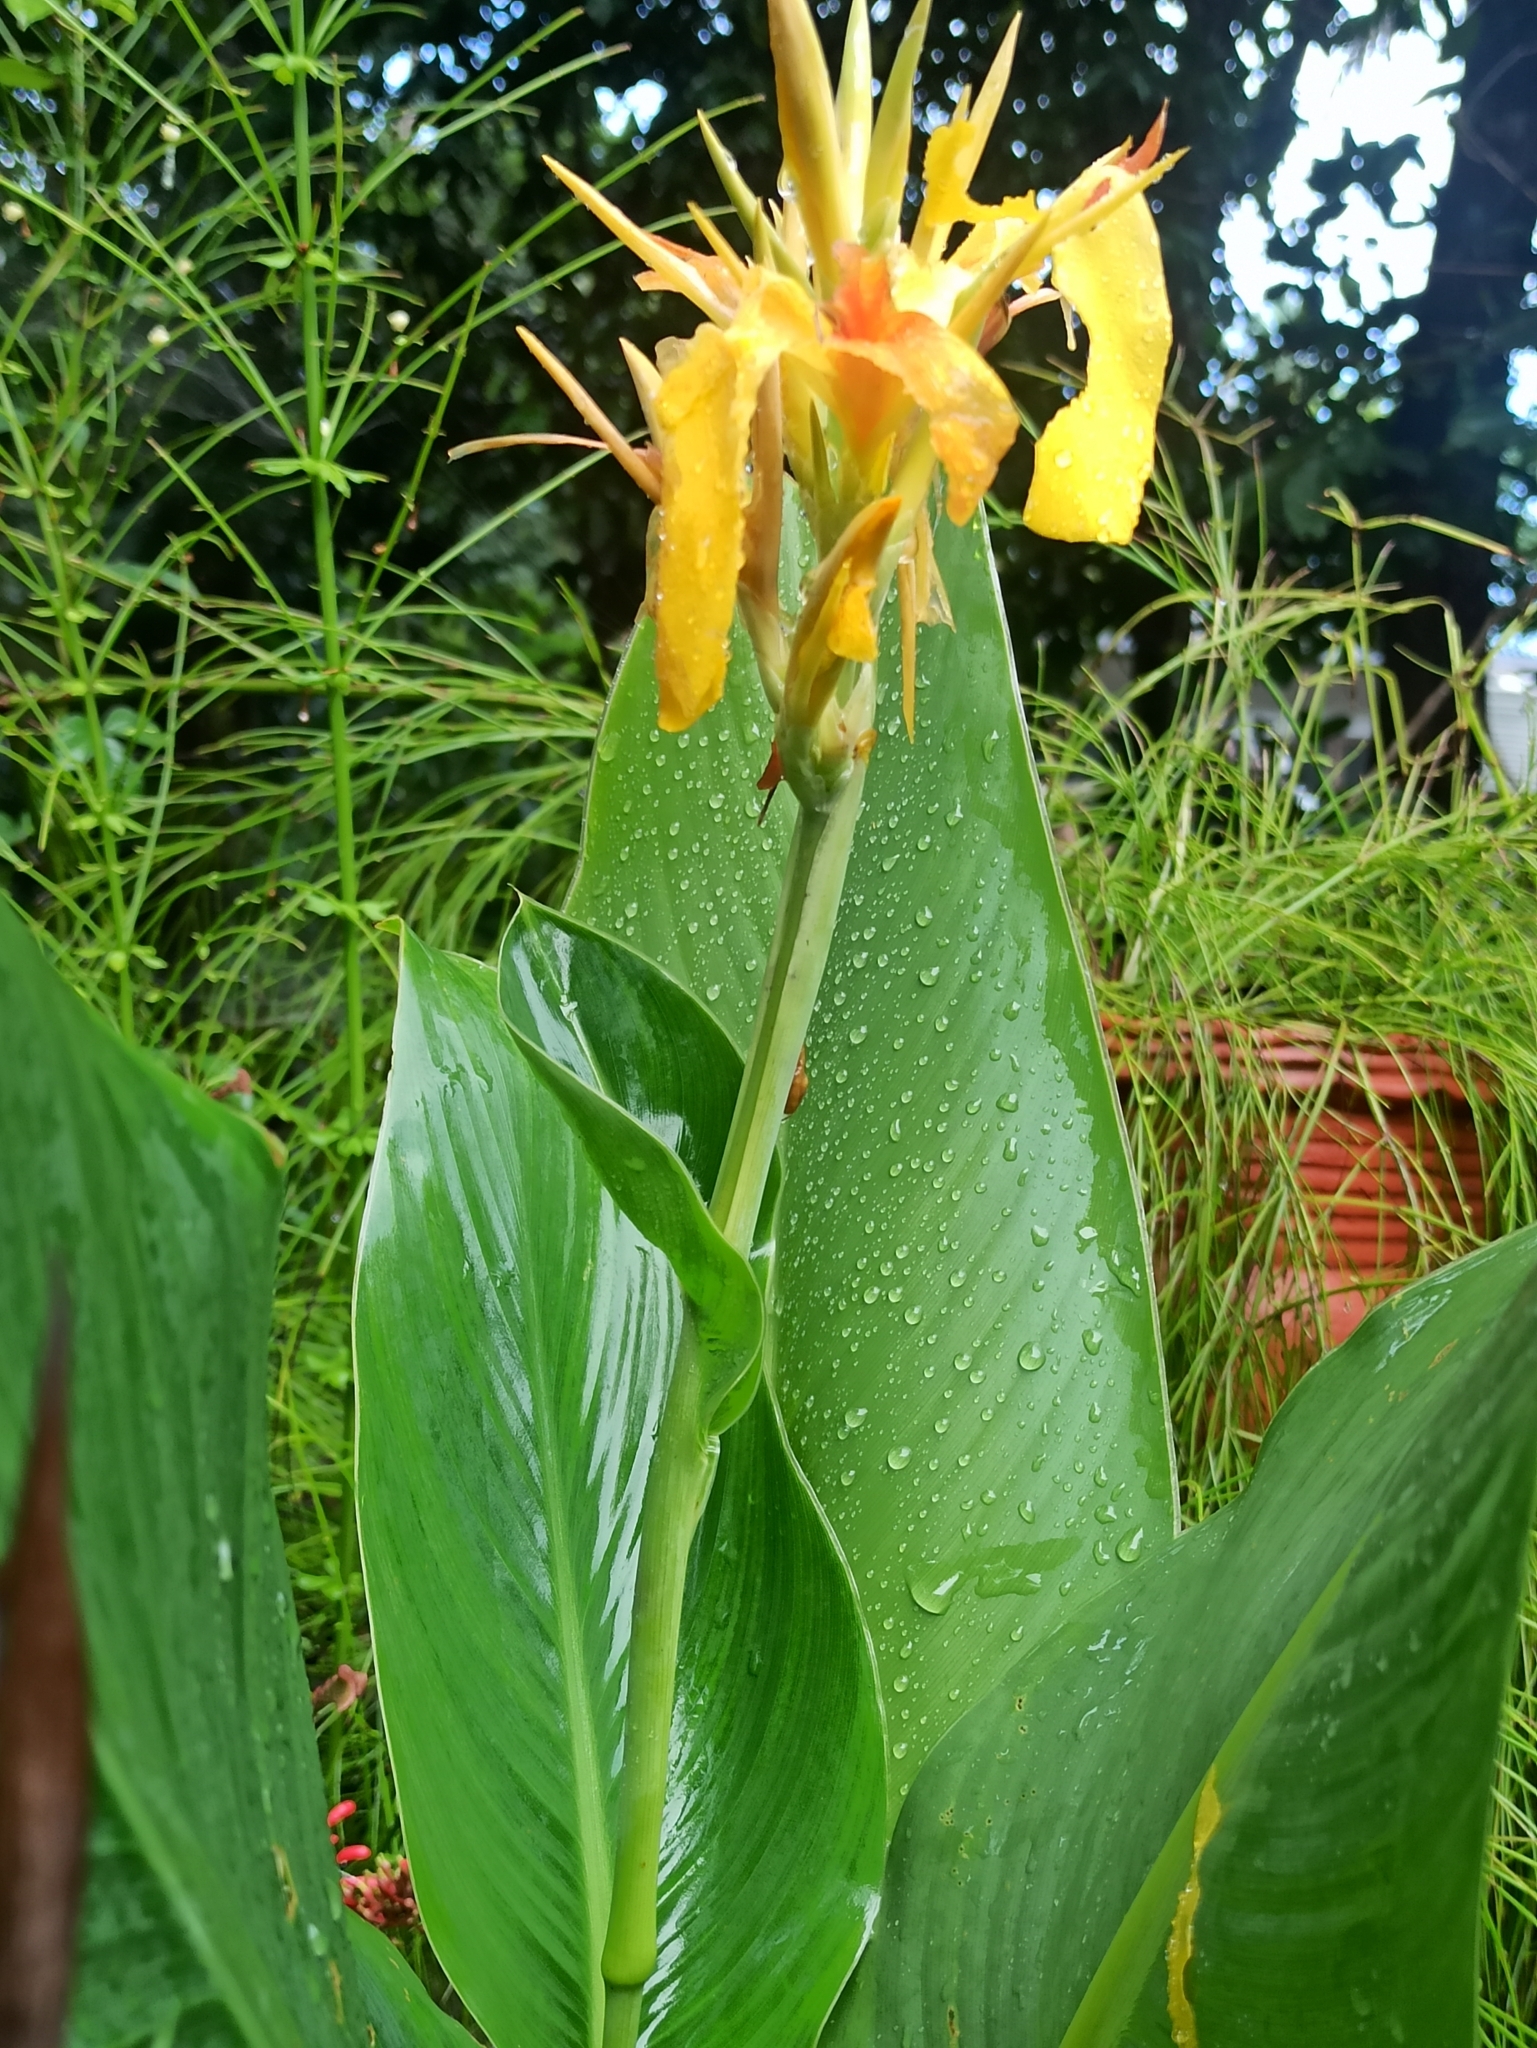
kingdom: Plantae
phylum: Tracheophyta
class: Liliopsida
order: Zingiberales
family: Cannaceae
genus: Canna
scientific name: Canna hybrida
